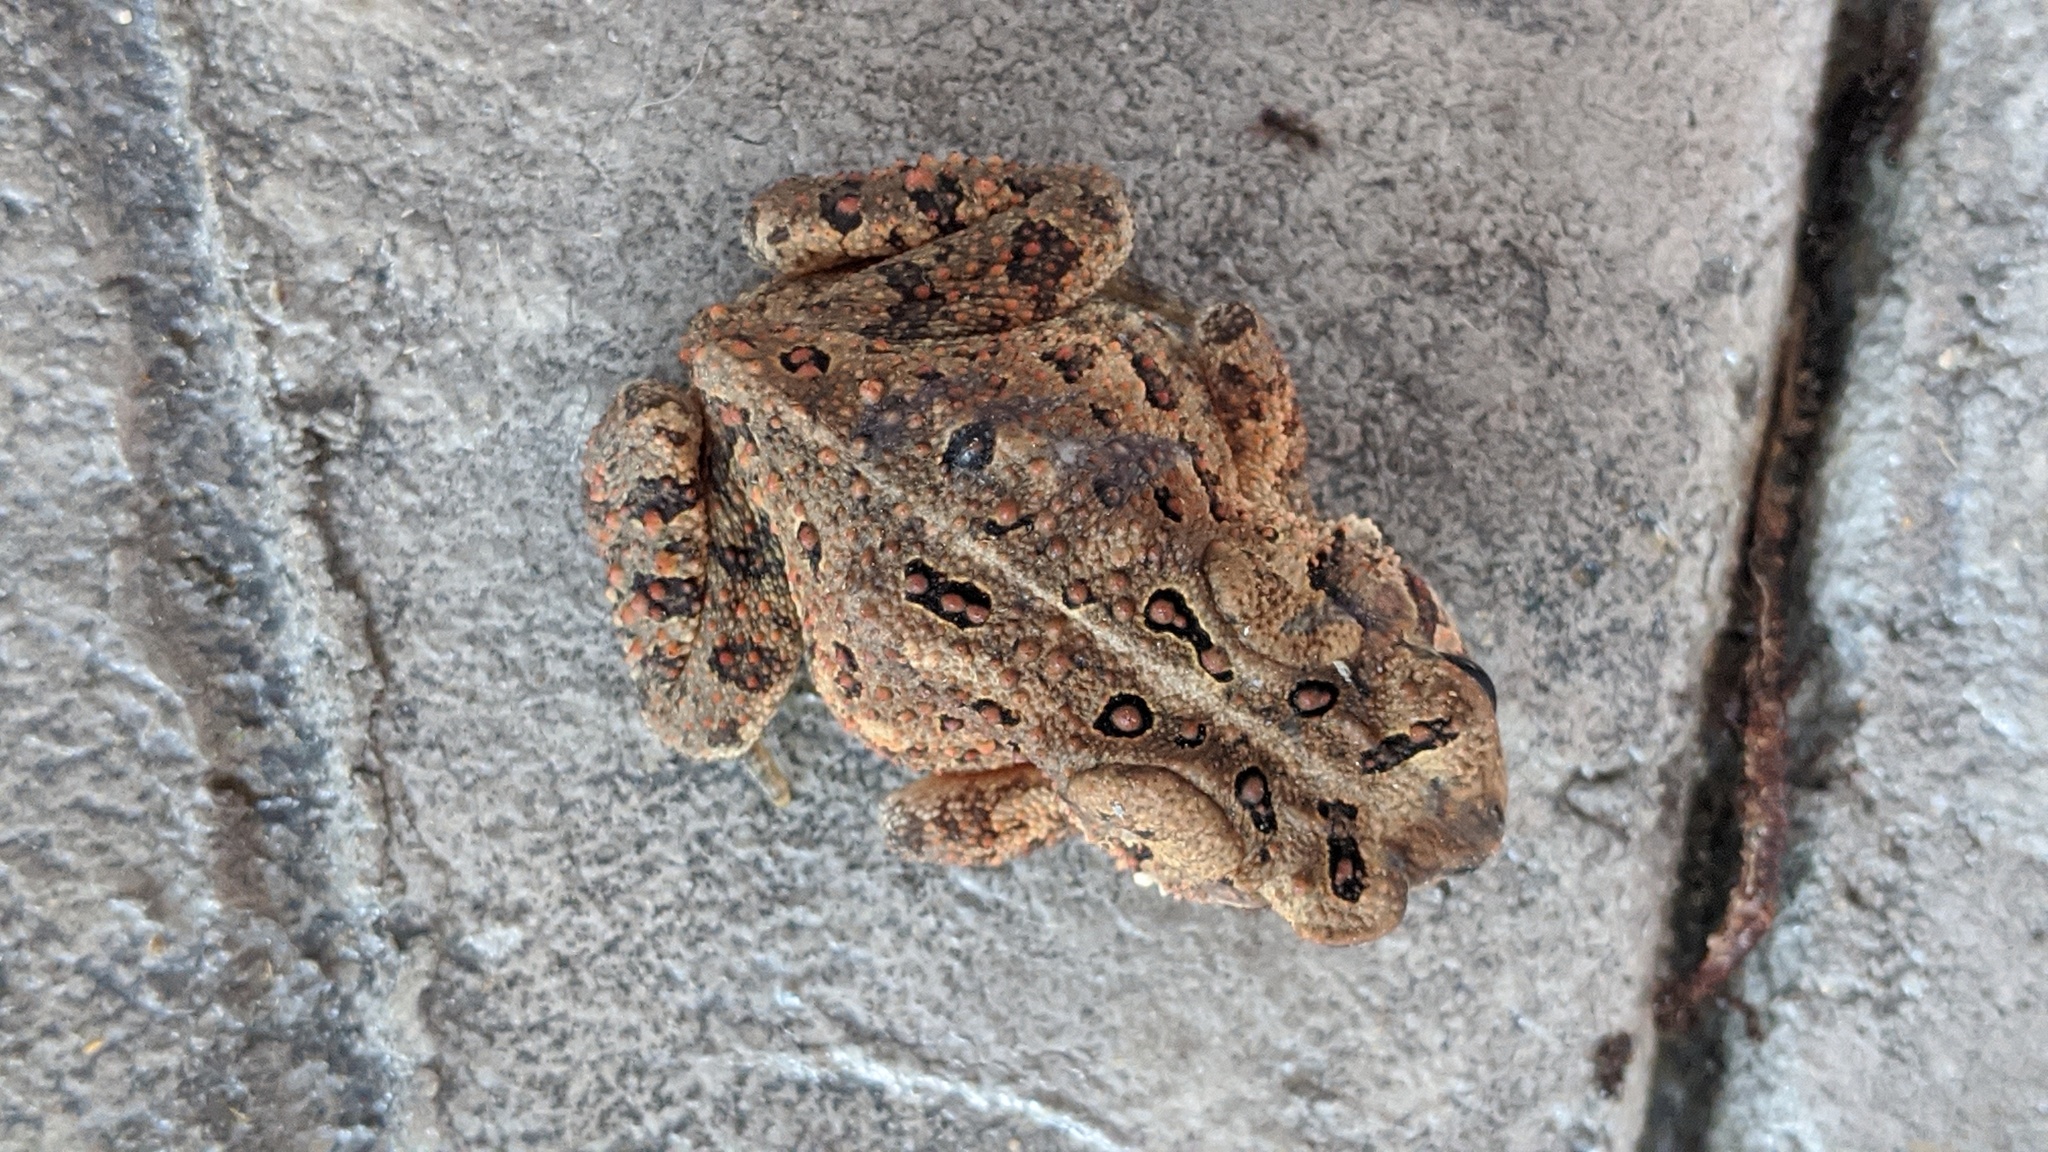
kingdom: Animalia
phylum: Chordata
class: Amphibia
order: Anura
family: Bufonidae
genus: Anaxyrus
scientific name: Anaxyrus
